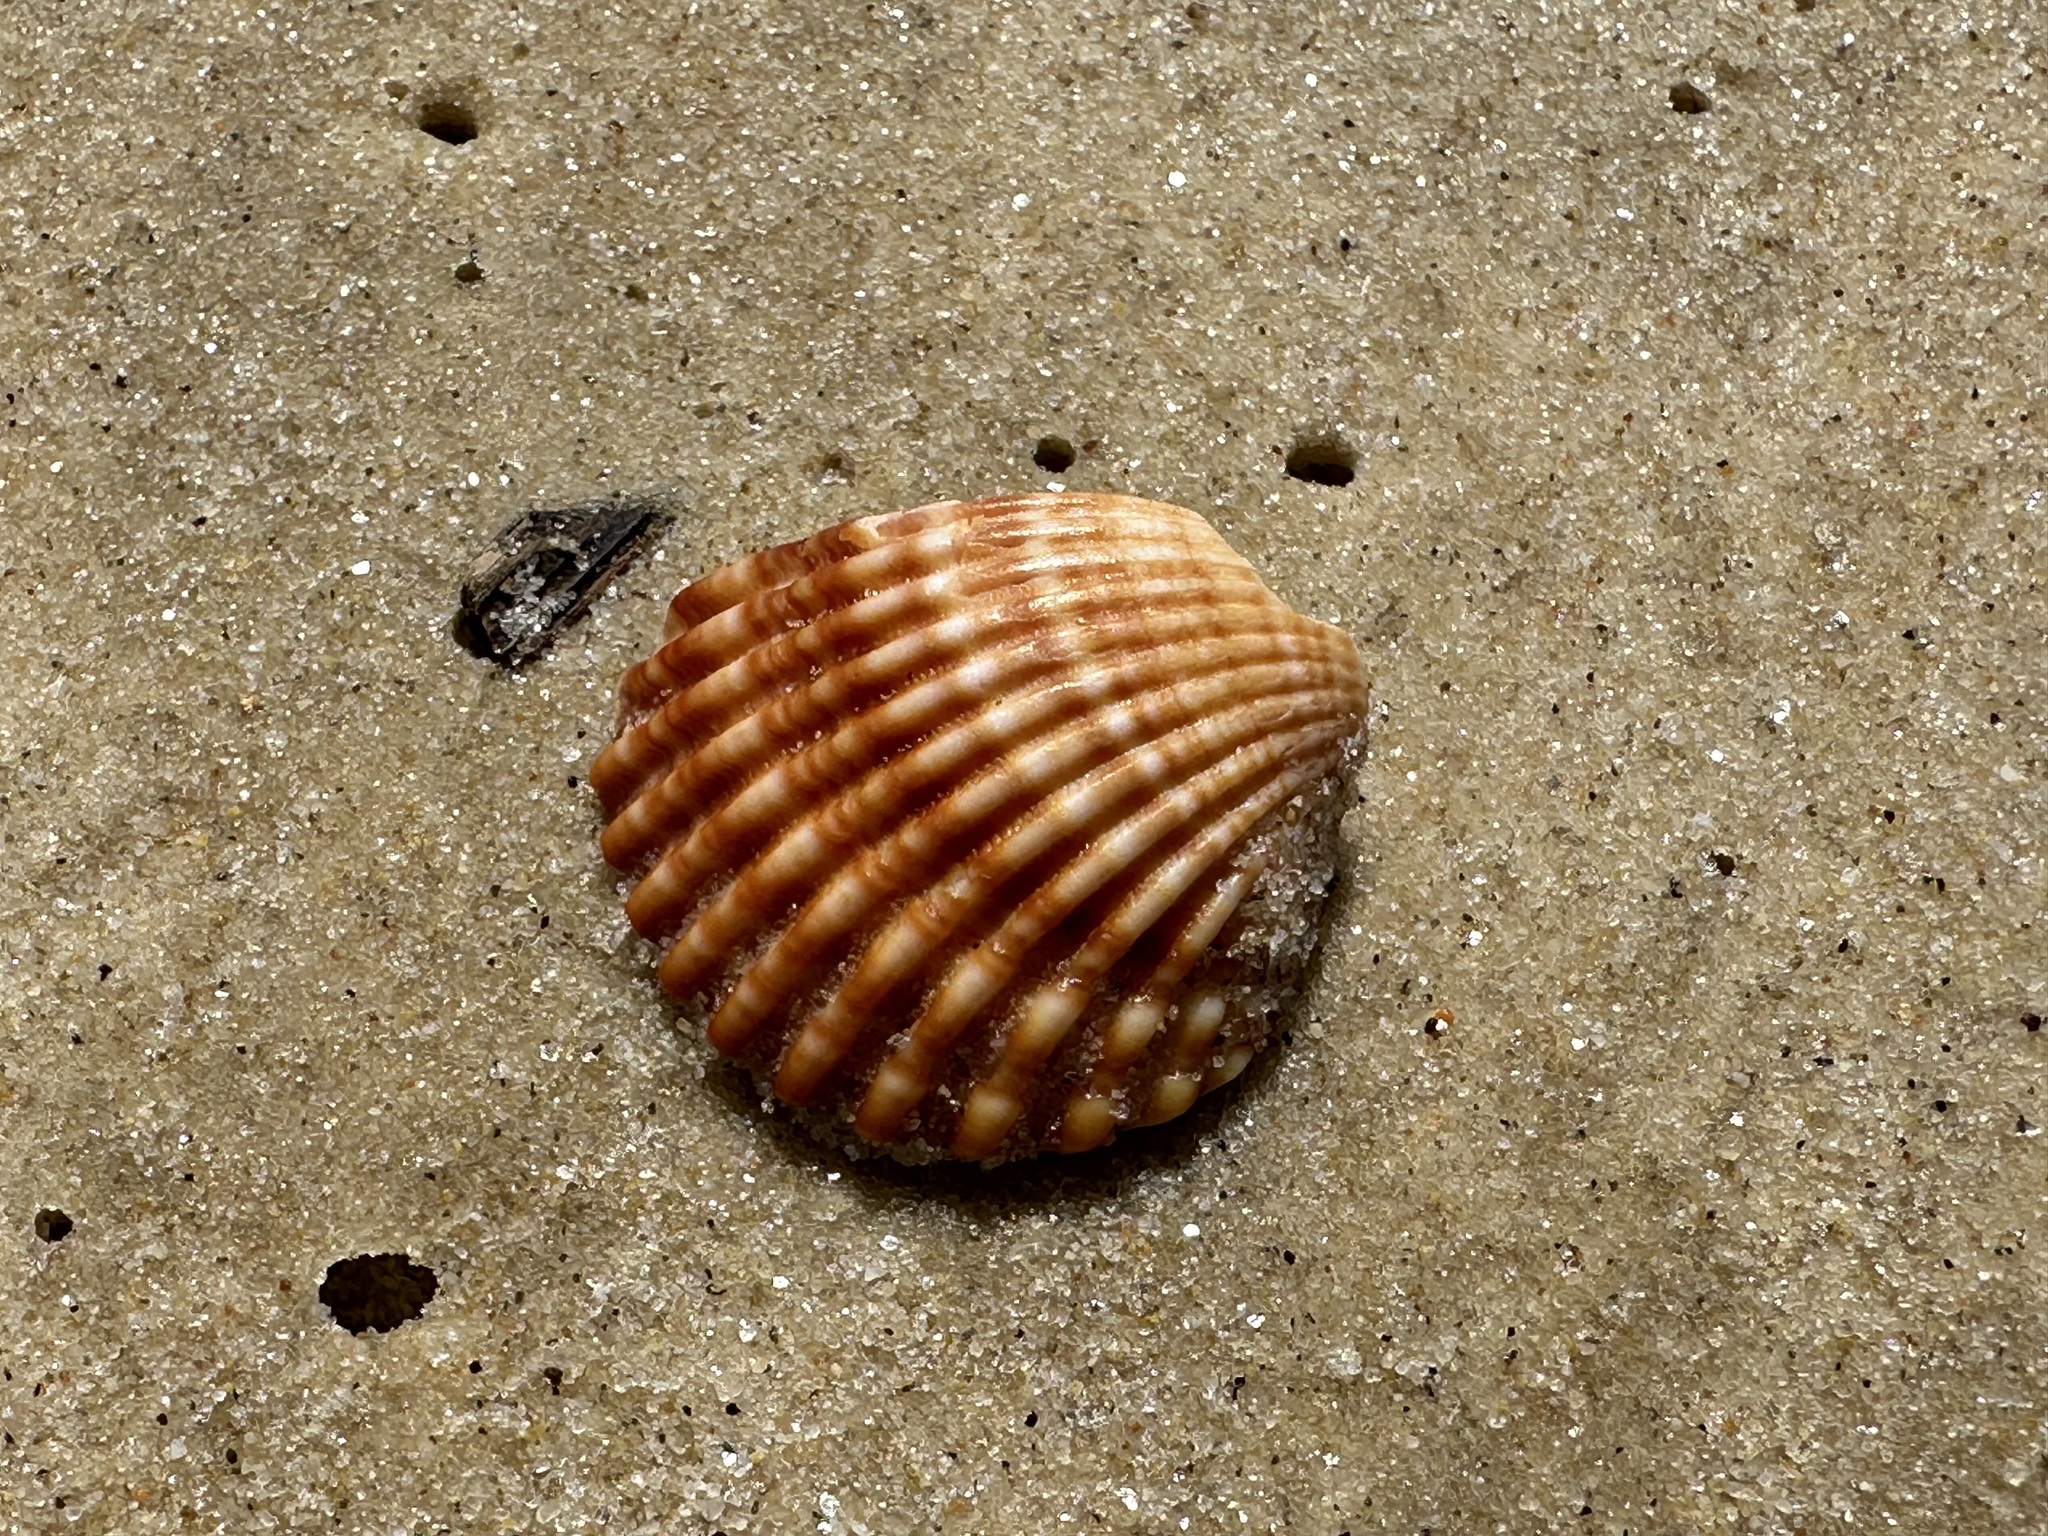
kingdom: Animalia
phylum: Mollusca
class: Bivalvia
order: Cardiida
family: Cardiidae
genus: Acanthocardia
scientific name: Acanthocardia tuberculata
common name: Rough cockle
